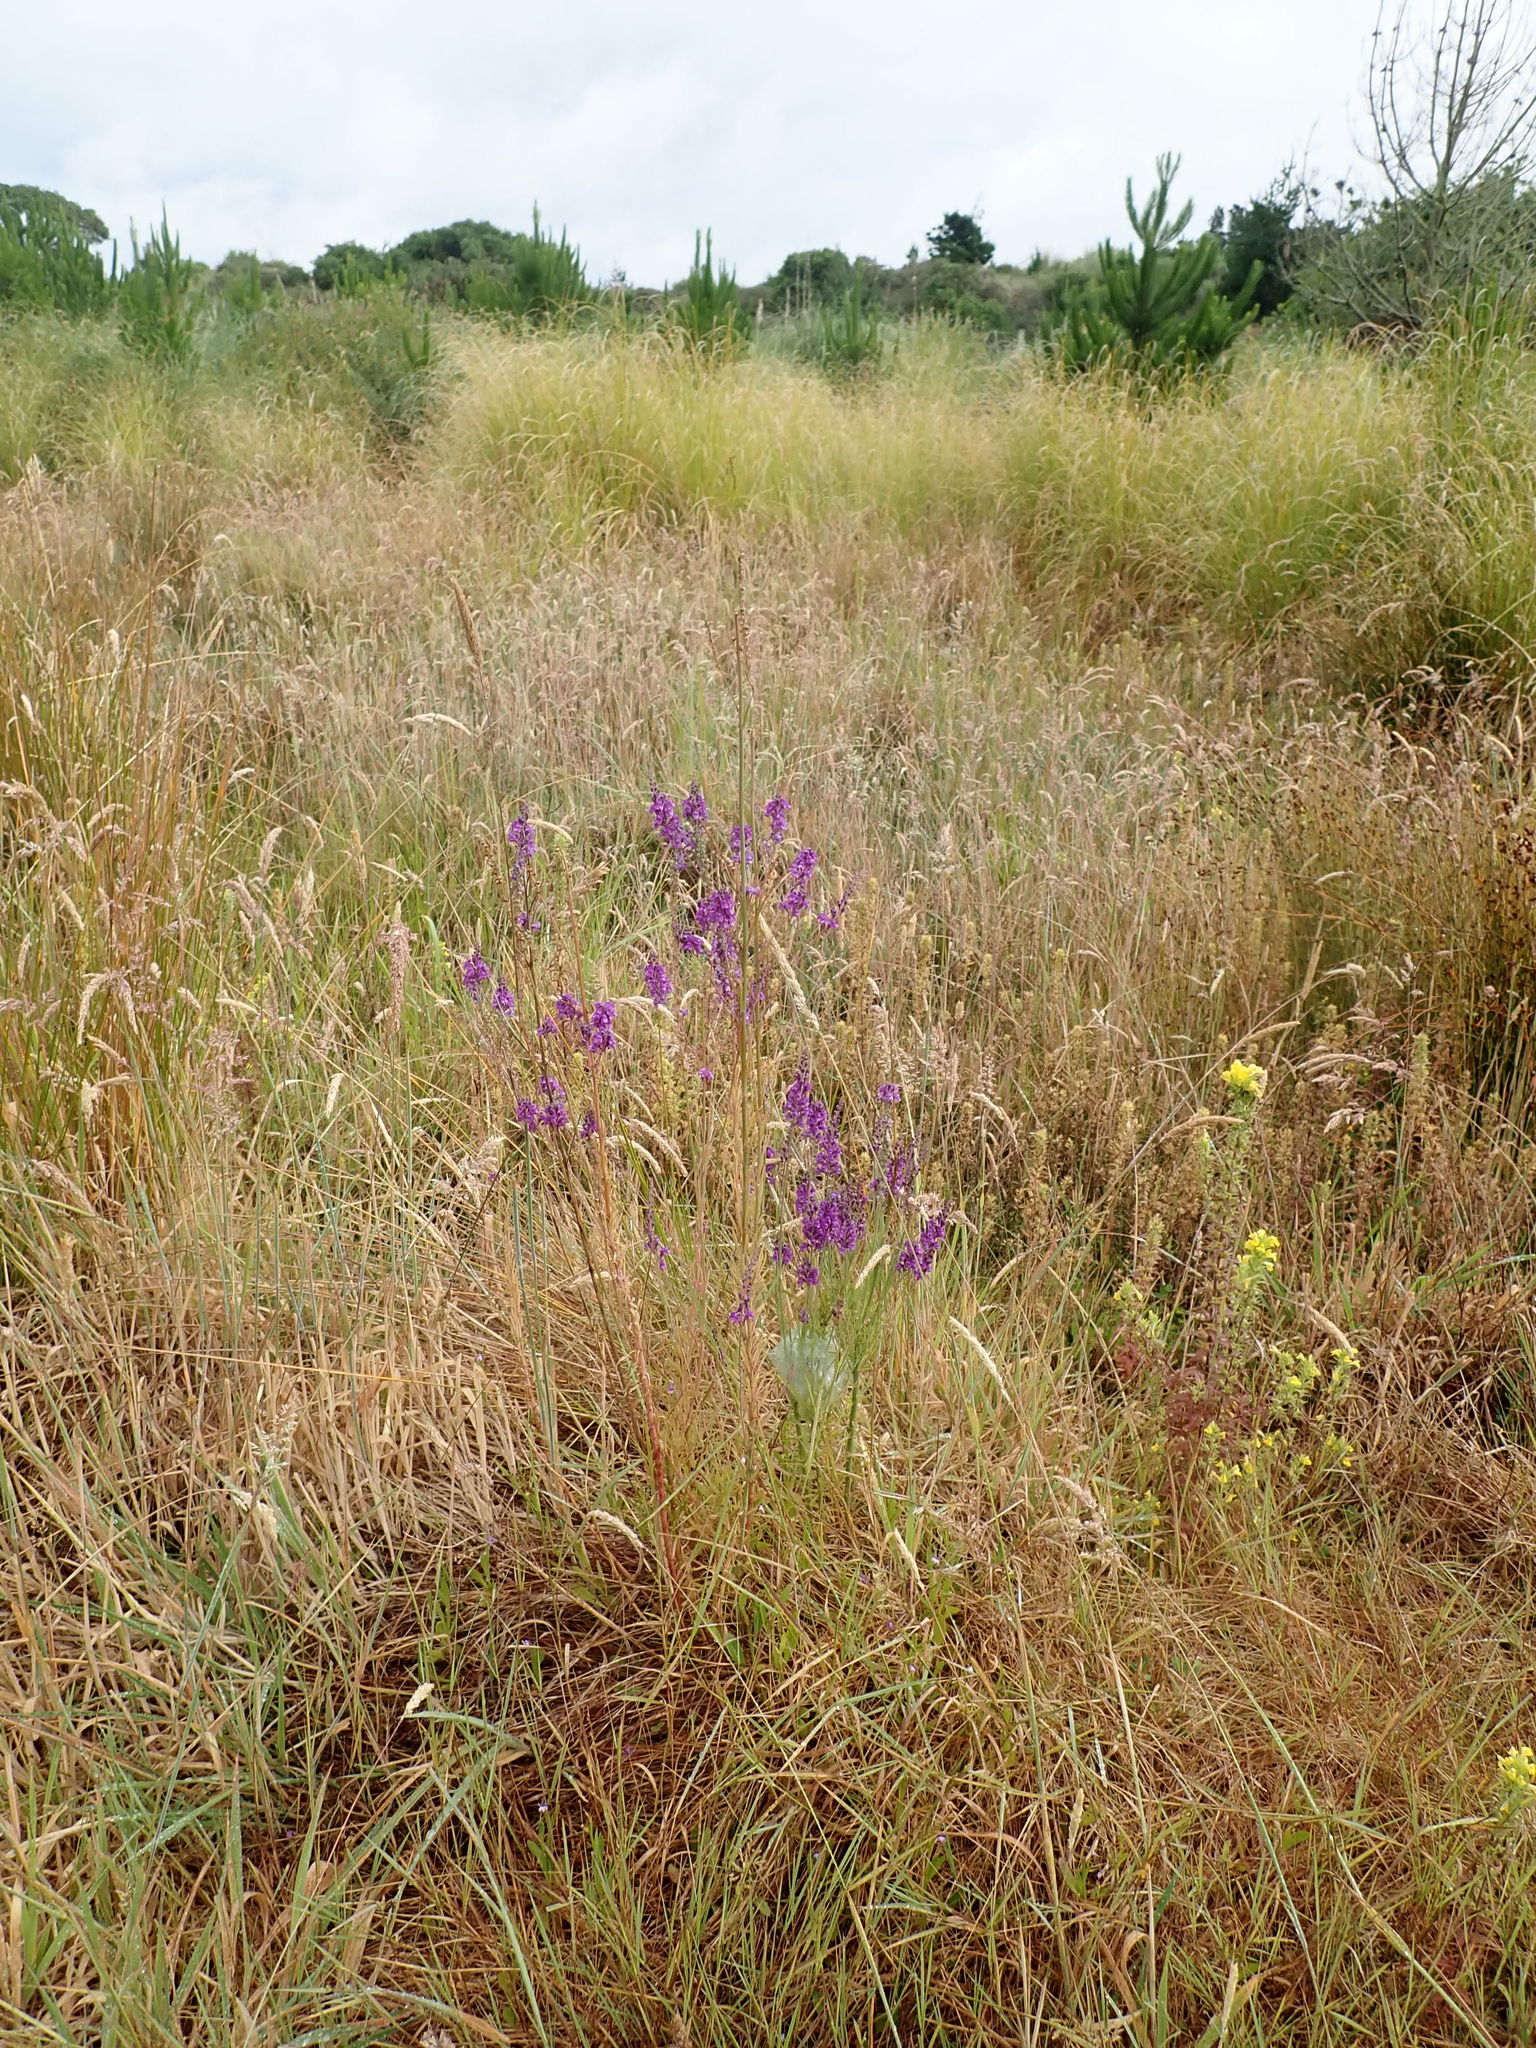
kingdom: Plantae
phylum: Tracheophyta
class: Magnoliopsida
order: Lamiales
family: Plantaginaceae
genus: Linaria
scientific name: Linaria purpurea
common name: Purple toadflax
